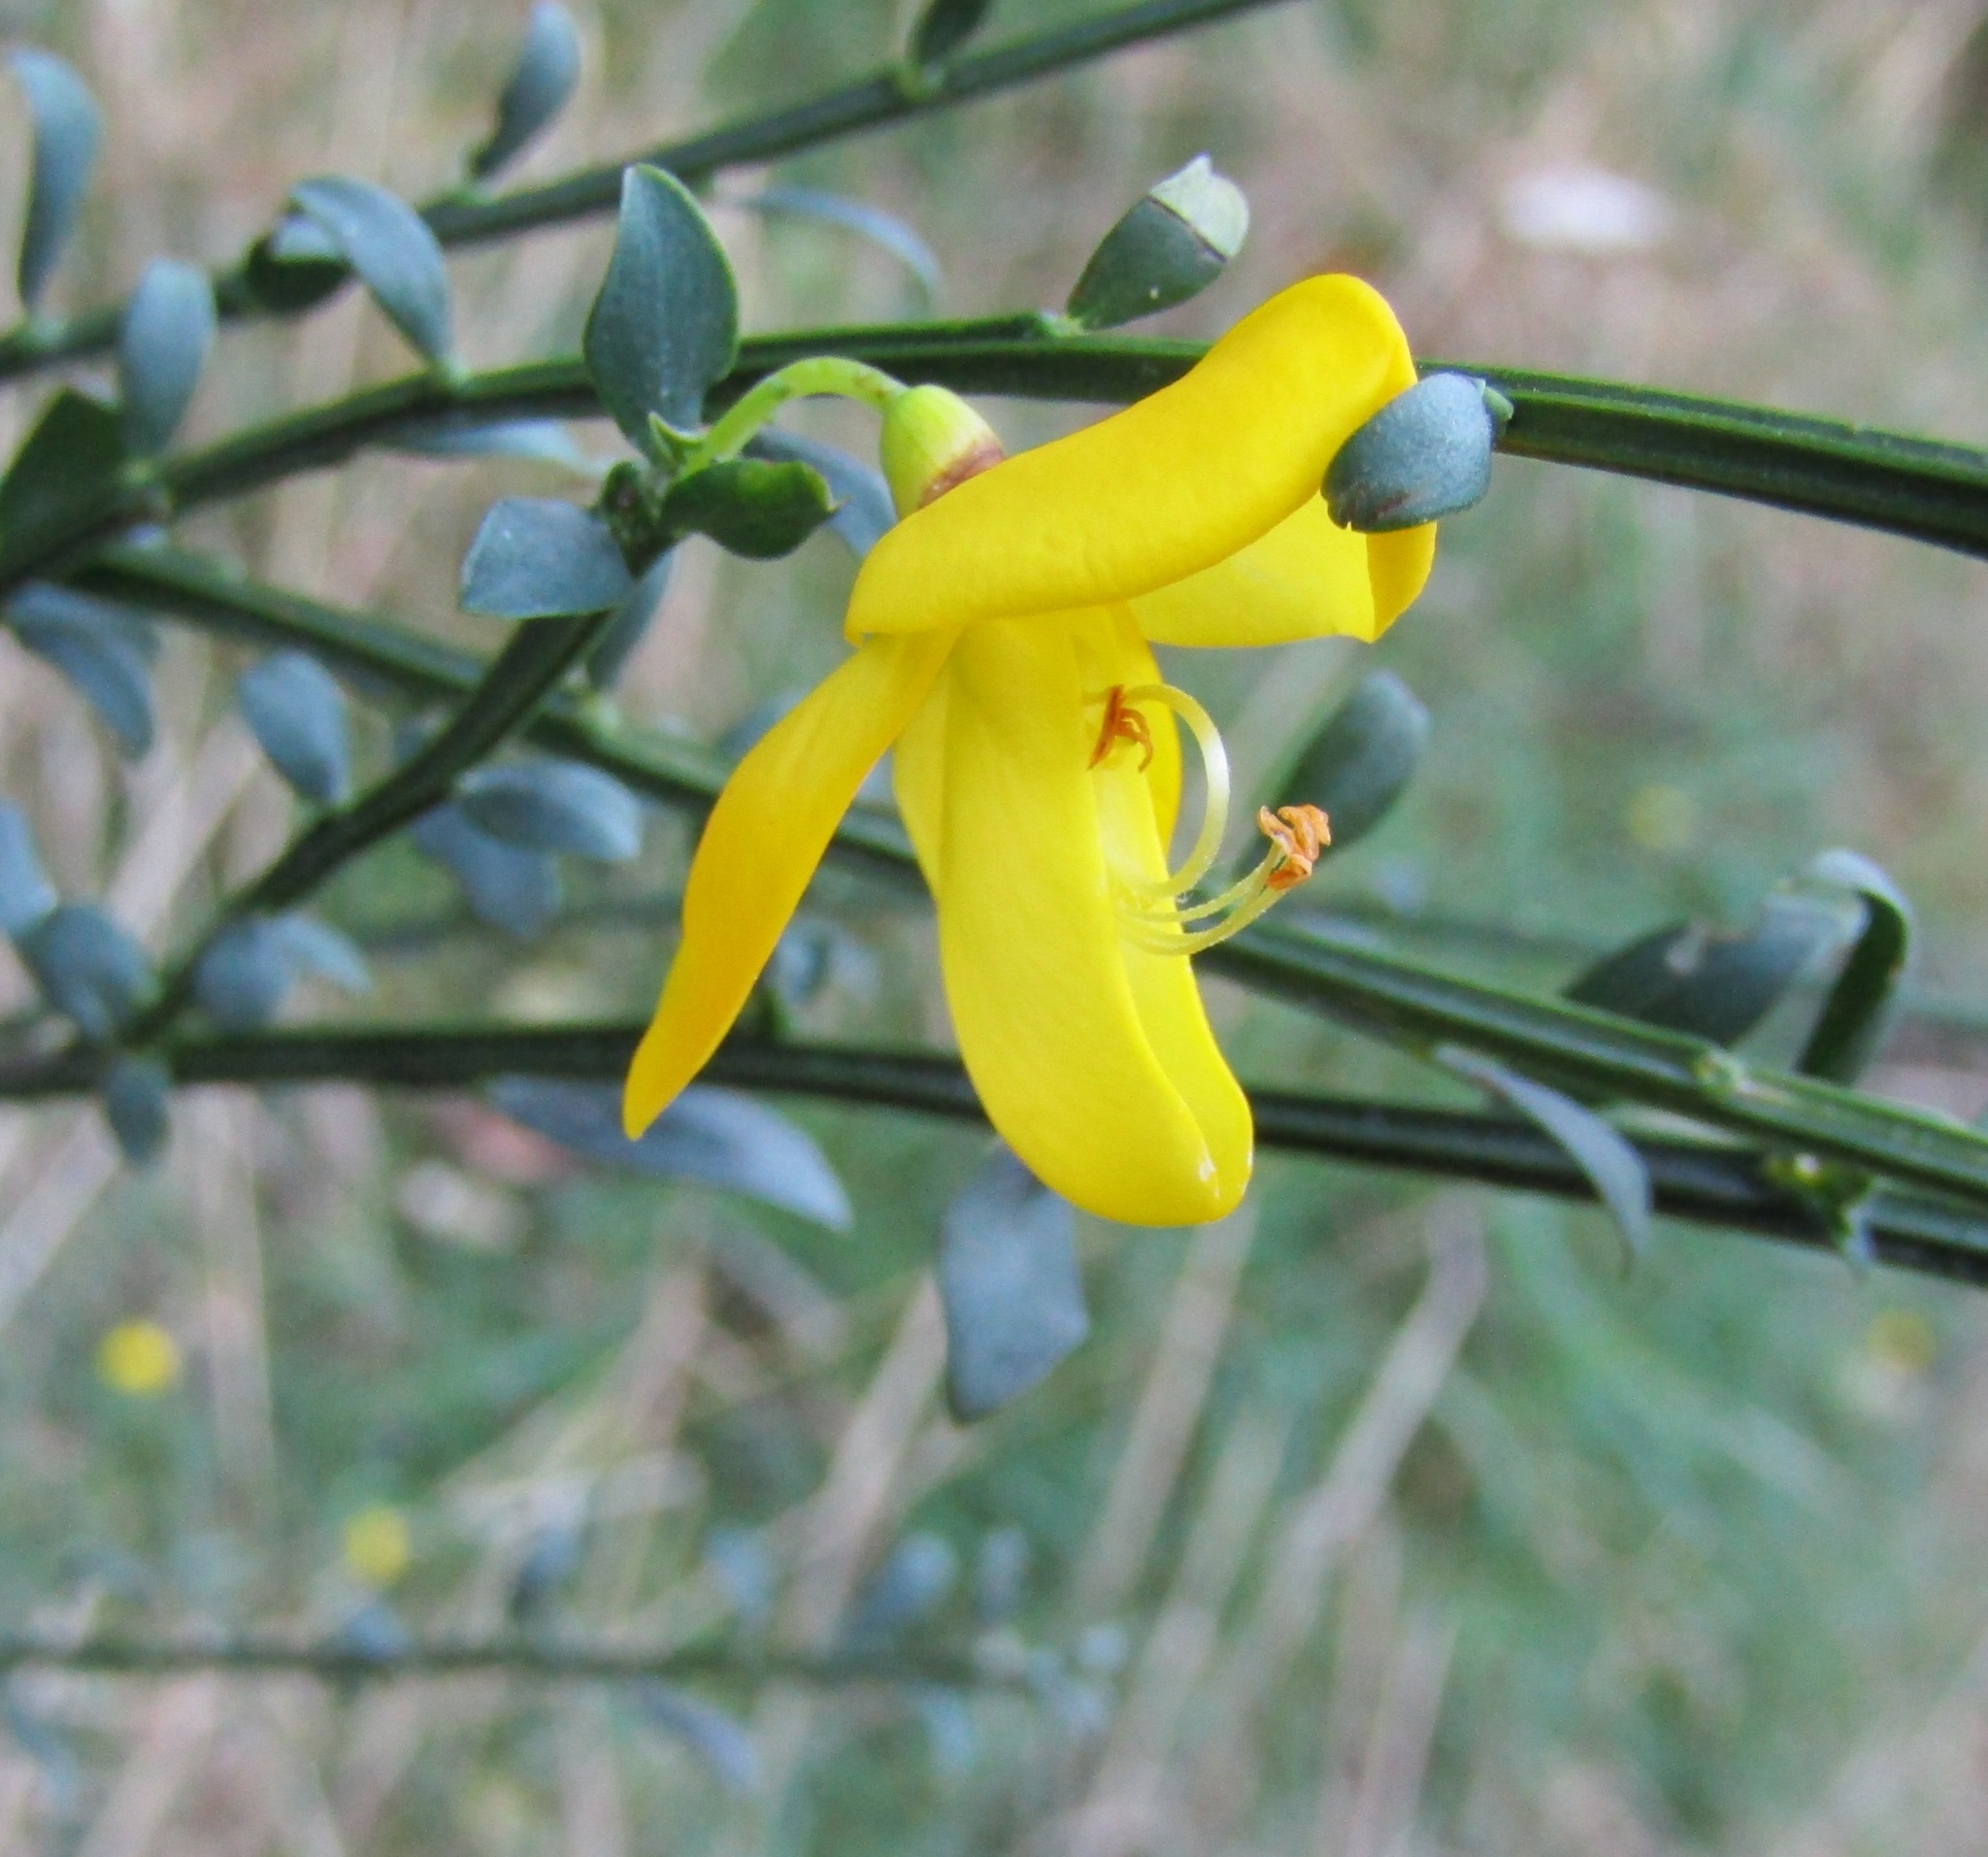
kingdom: Plantae
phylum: Tracheophyta
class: Magnoliopsida
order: Fabales
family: Fabaceae
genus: Cytisus
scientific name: Cytisus scoparius
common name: Scotch broom
